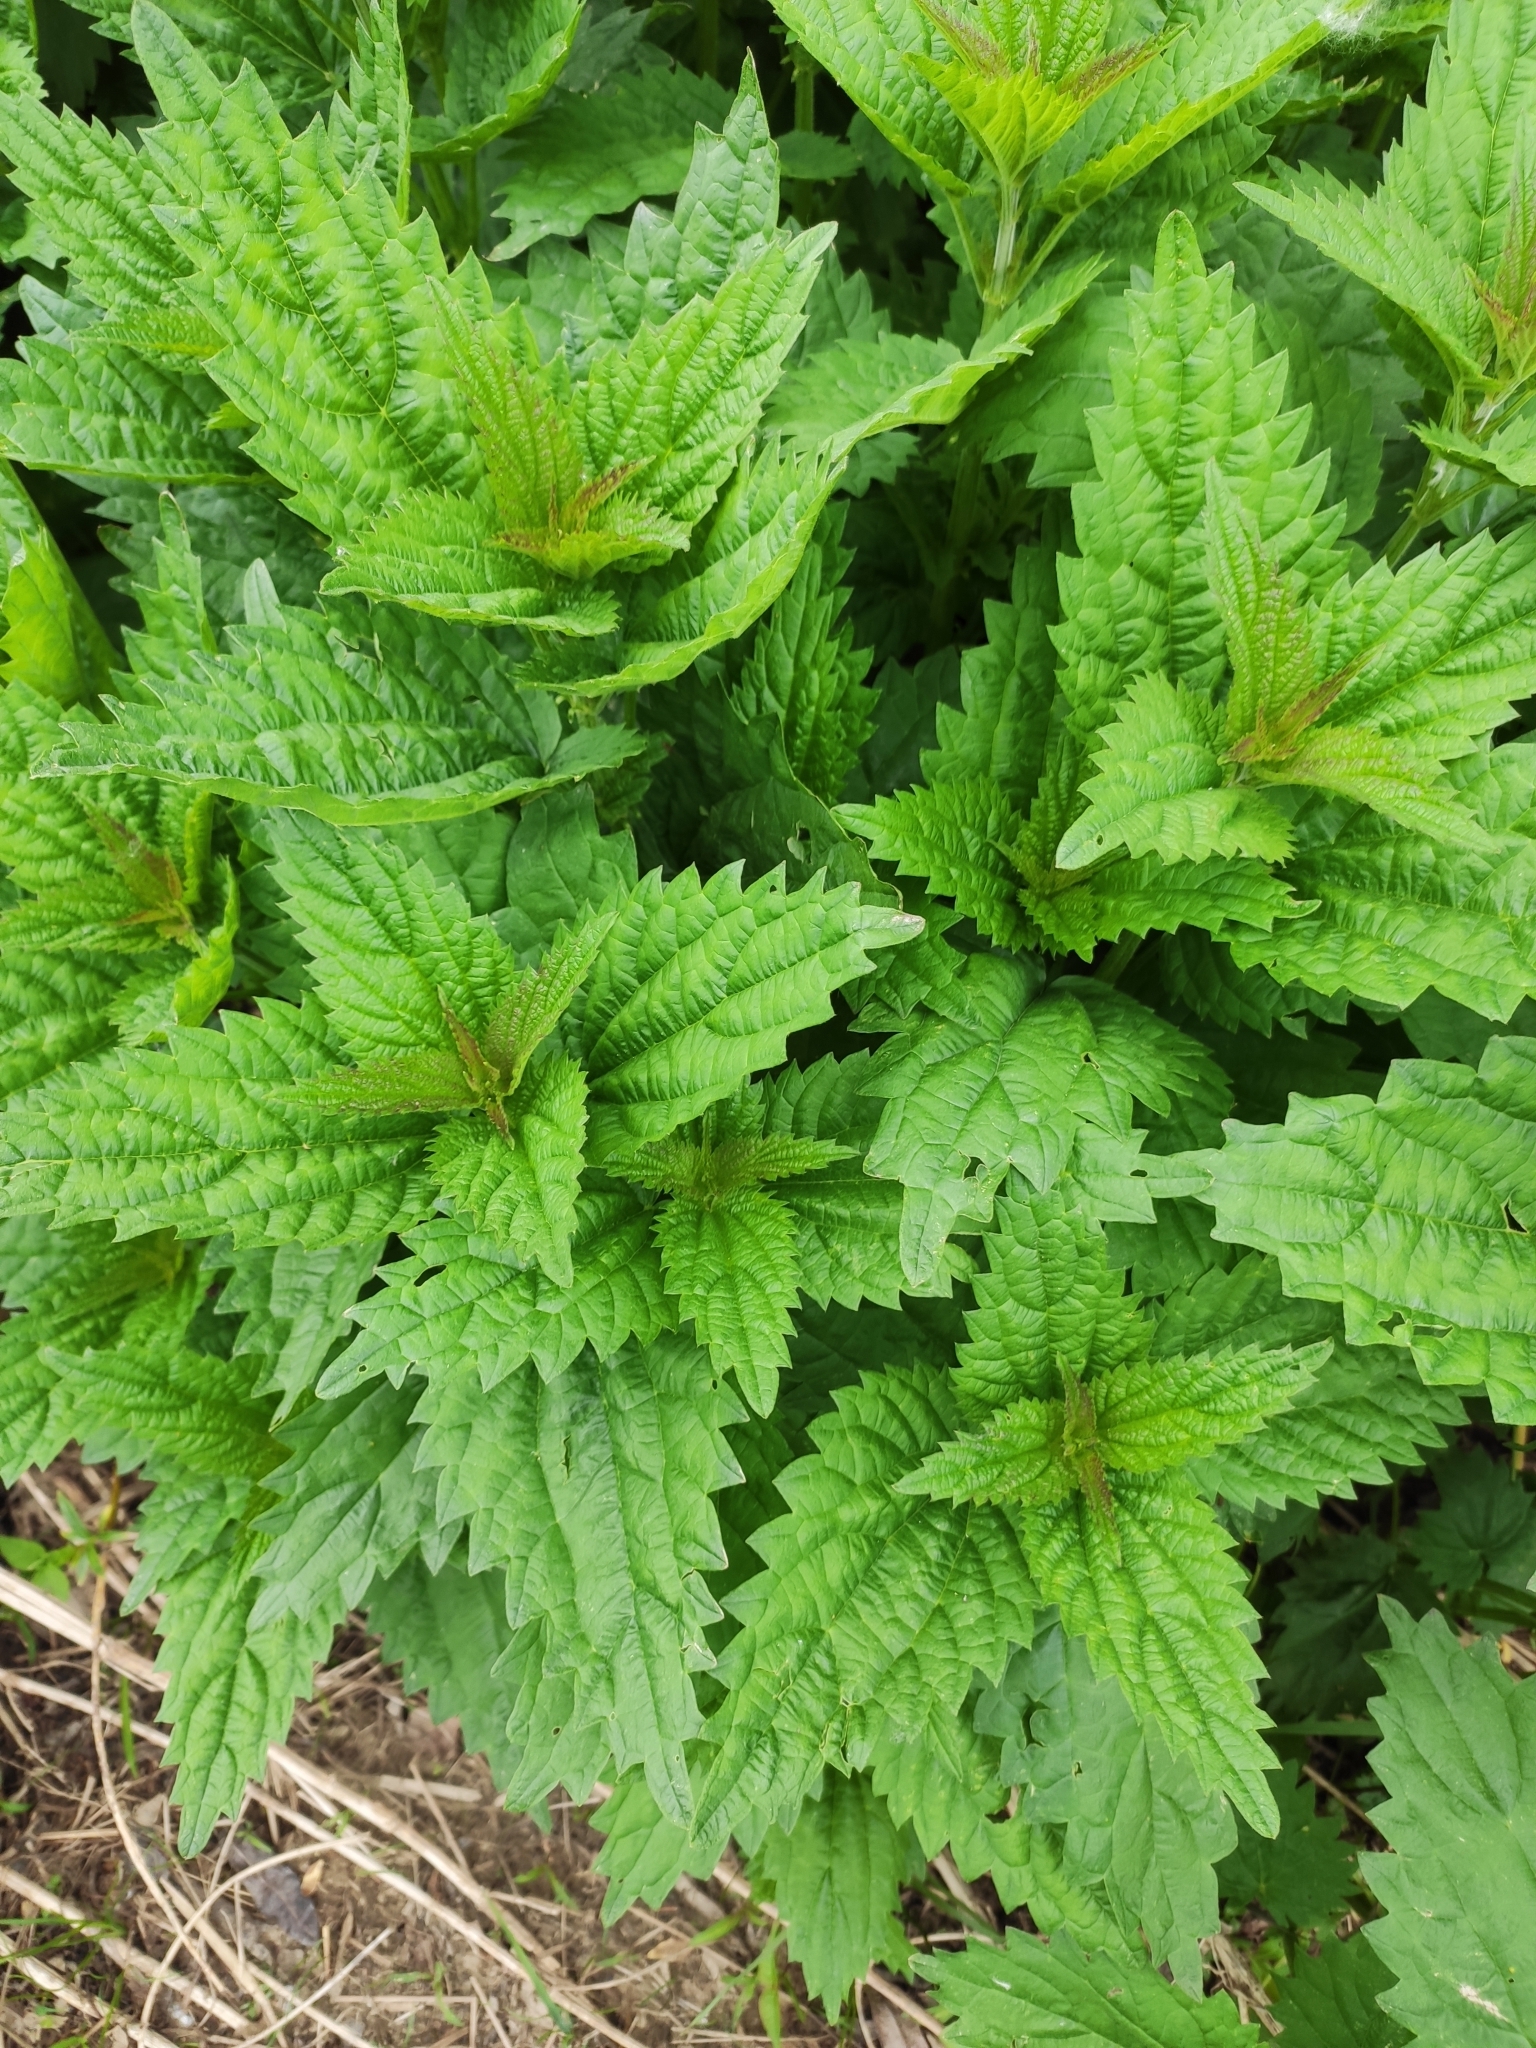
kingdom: Plantae
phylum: Tracheophyta
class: Magnoliopsida
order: Rosales
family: Urticaceae
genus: Urtica
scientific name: Urtica dioica
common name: Common nettle
